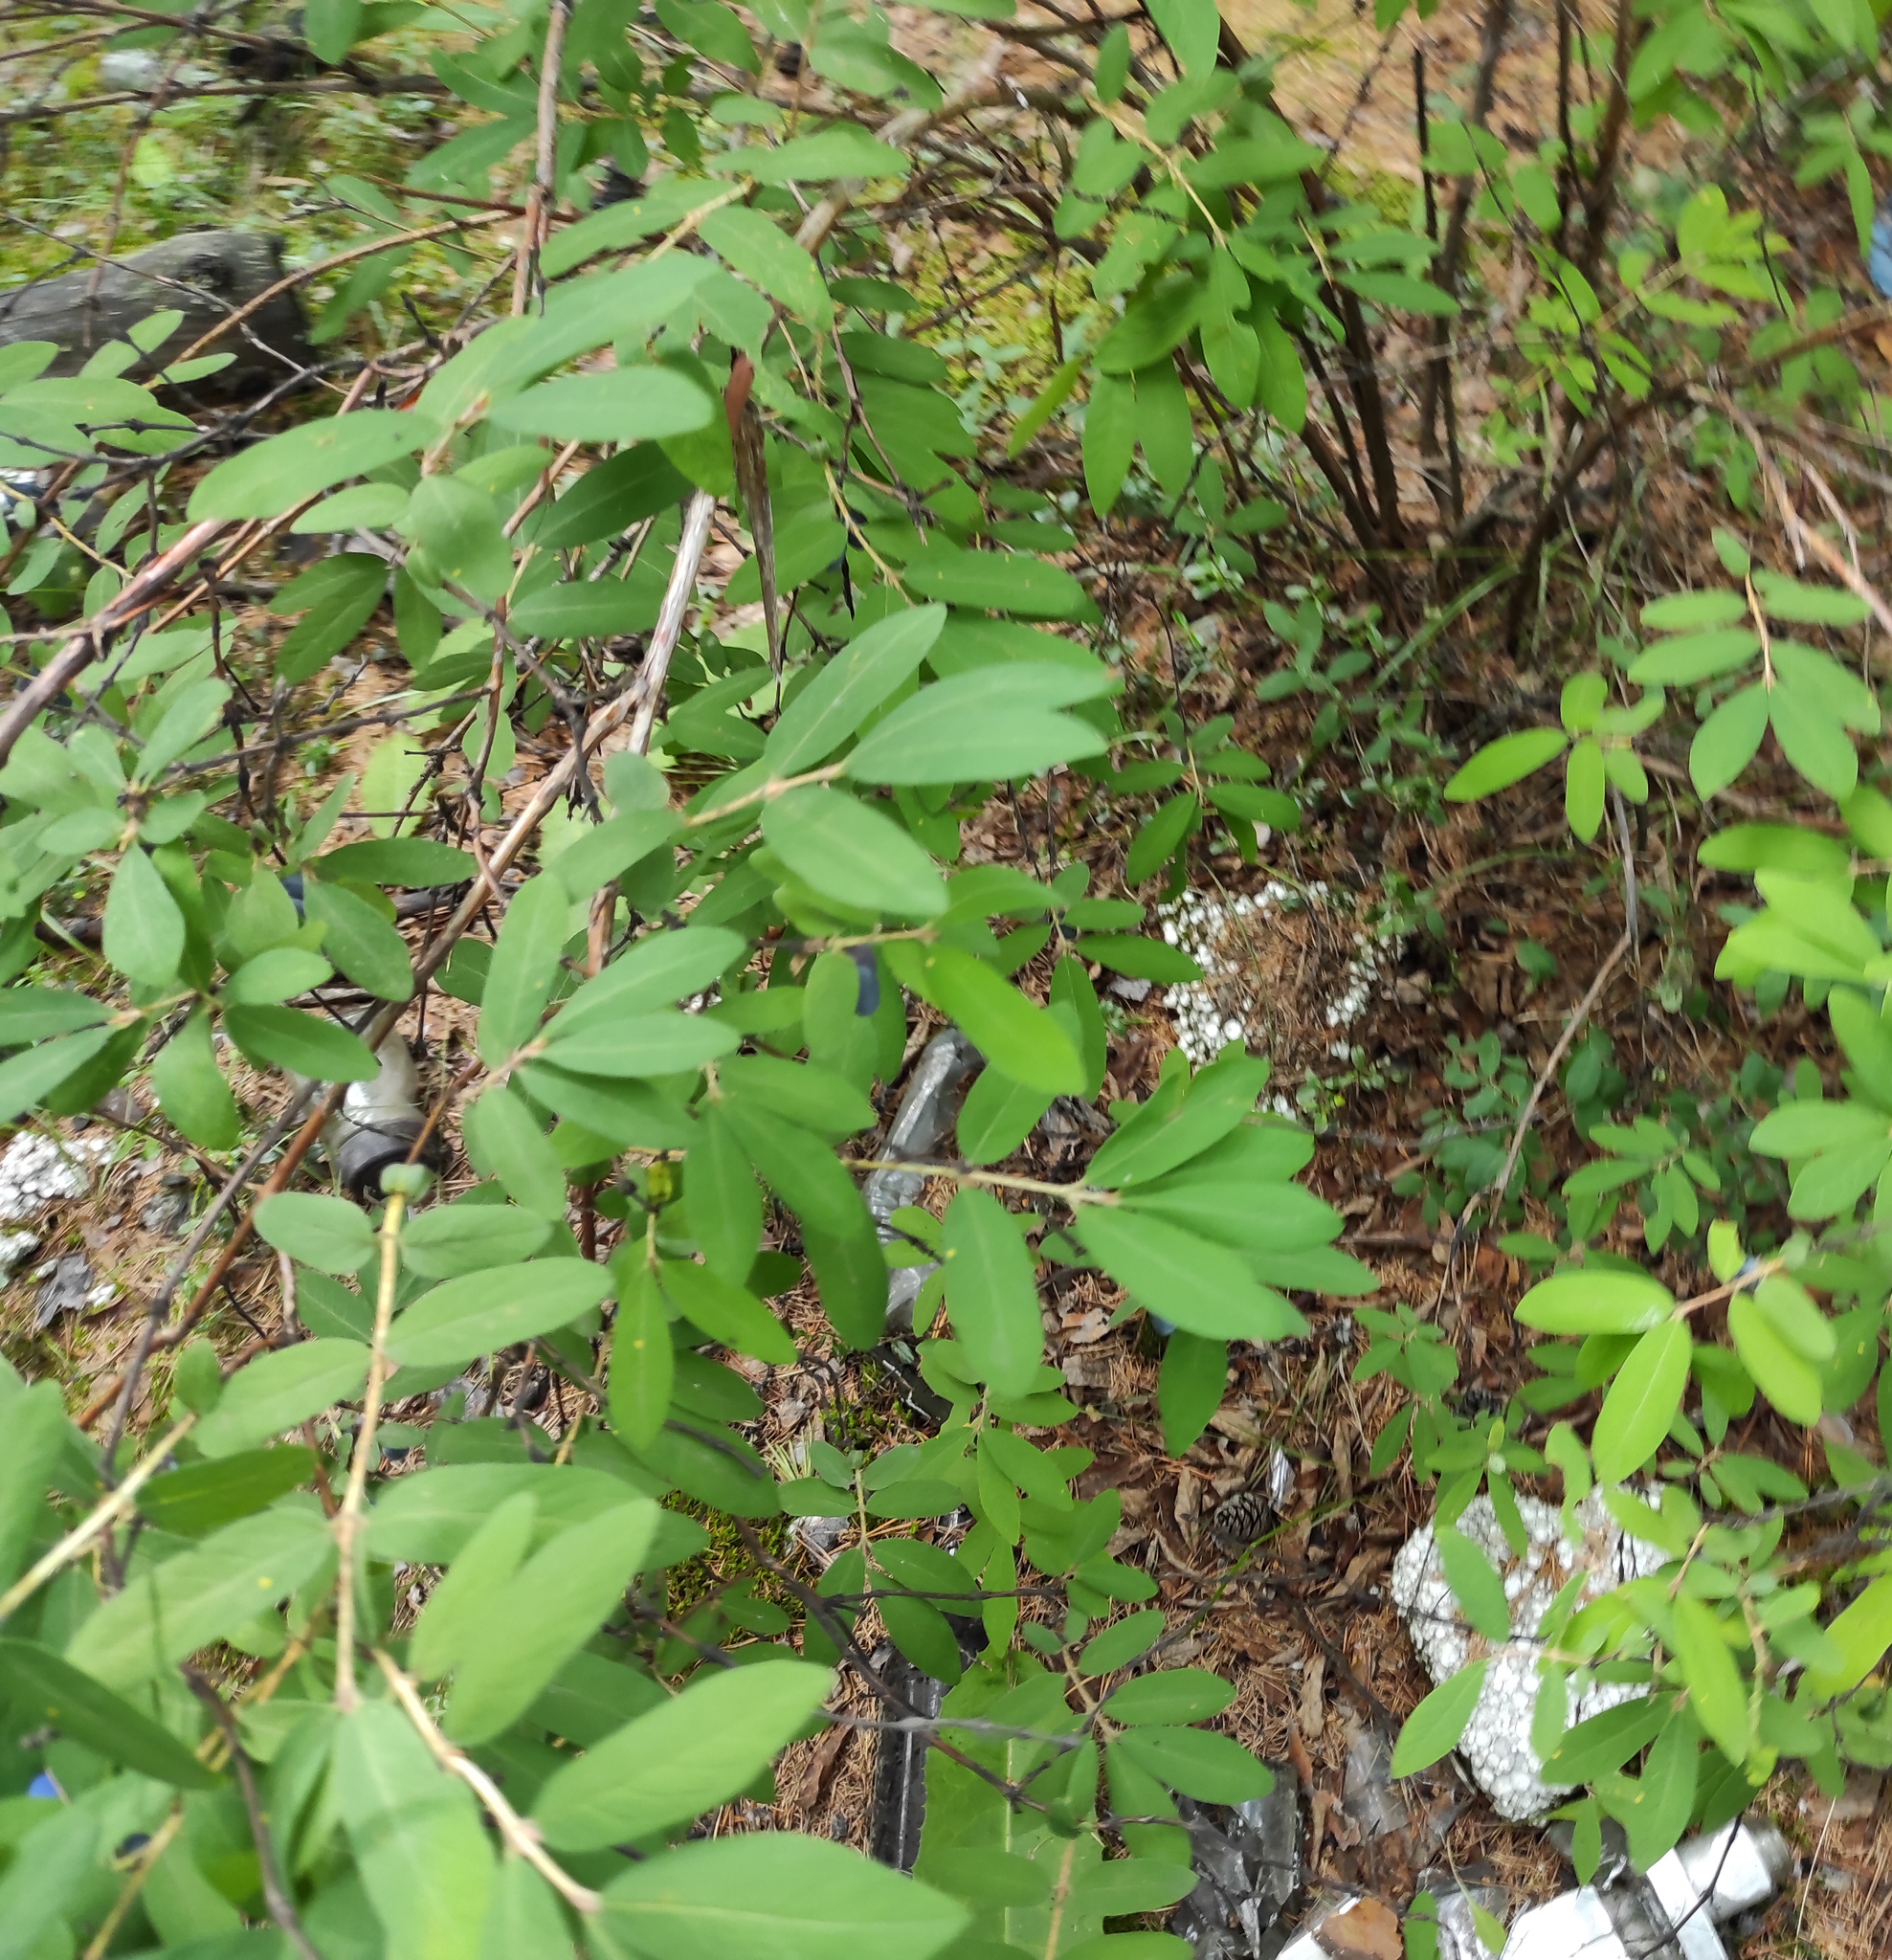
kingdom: Plantae
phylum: Tracheophyta
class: Magnoliopsida
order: Dipsacales
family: Caprifoliaceae
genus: Lonicera
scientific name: Lonicera caerulea
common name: Blue honeysuckle
